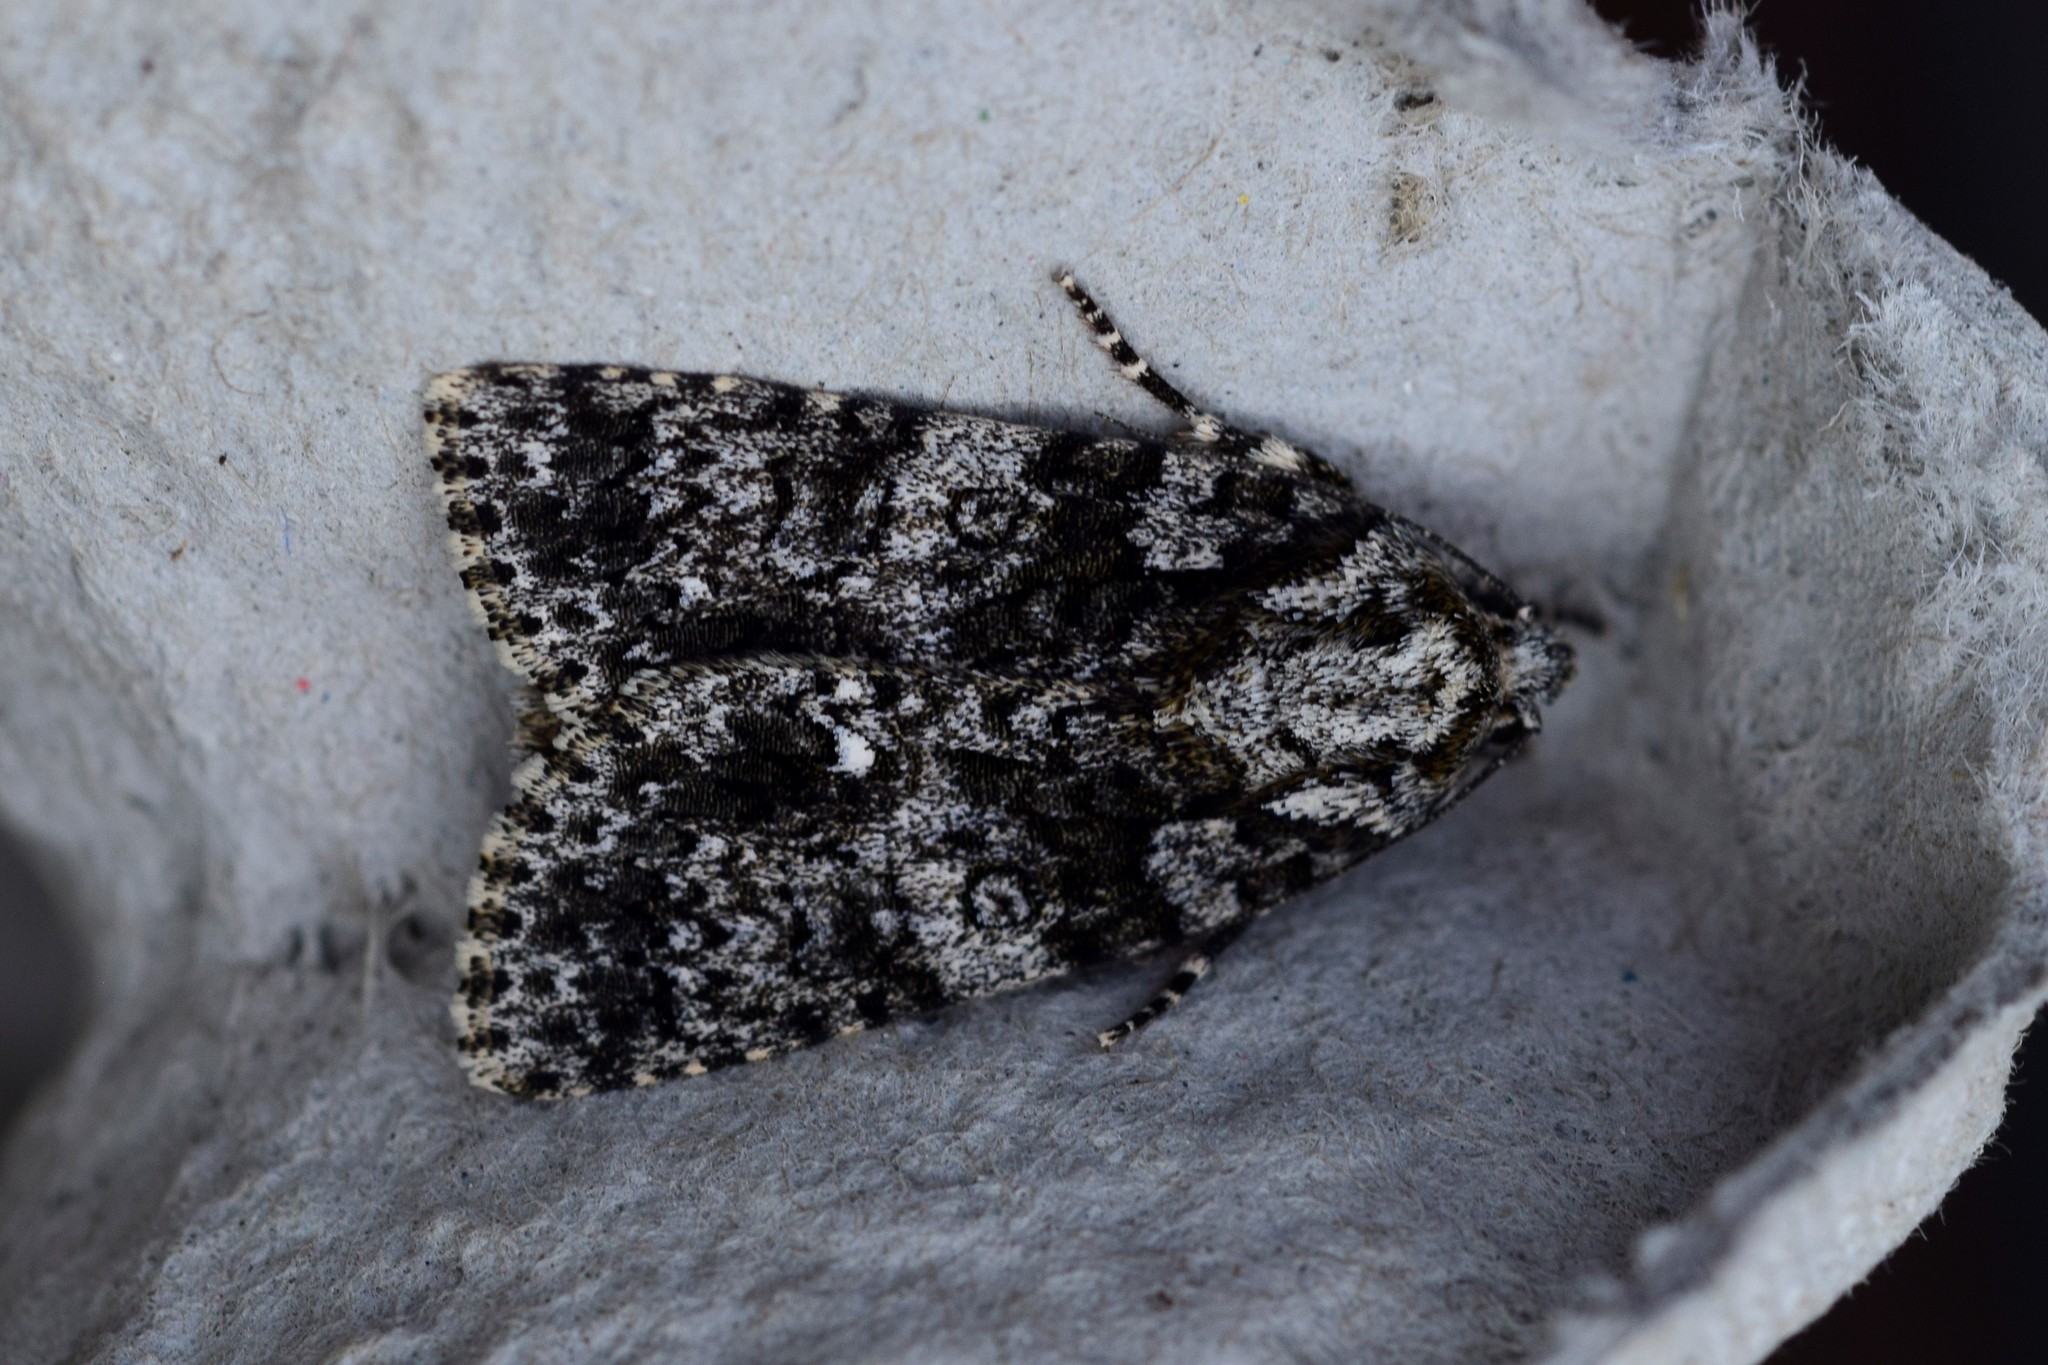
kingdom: Animalia
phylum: Arthropoda
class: Insecta
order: Lepidoptera
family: Noctuidae
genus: Acronicta
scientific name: Acronicta rumicis
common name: Knot grass
